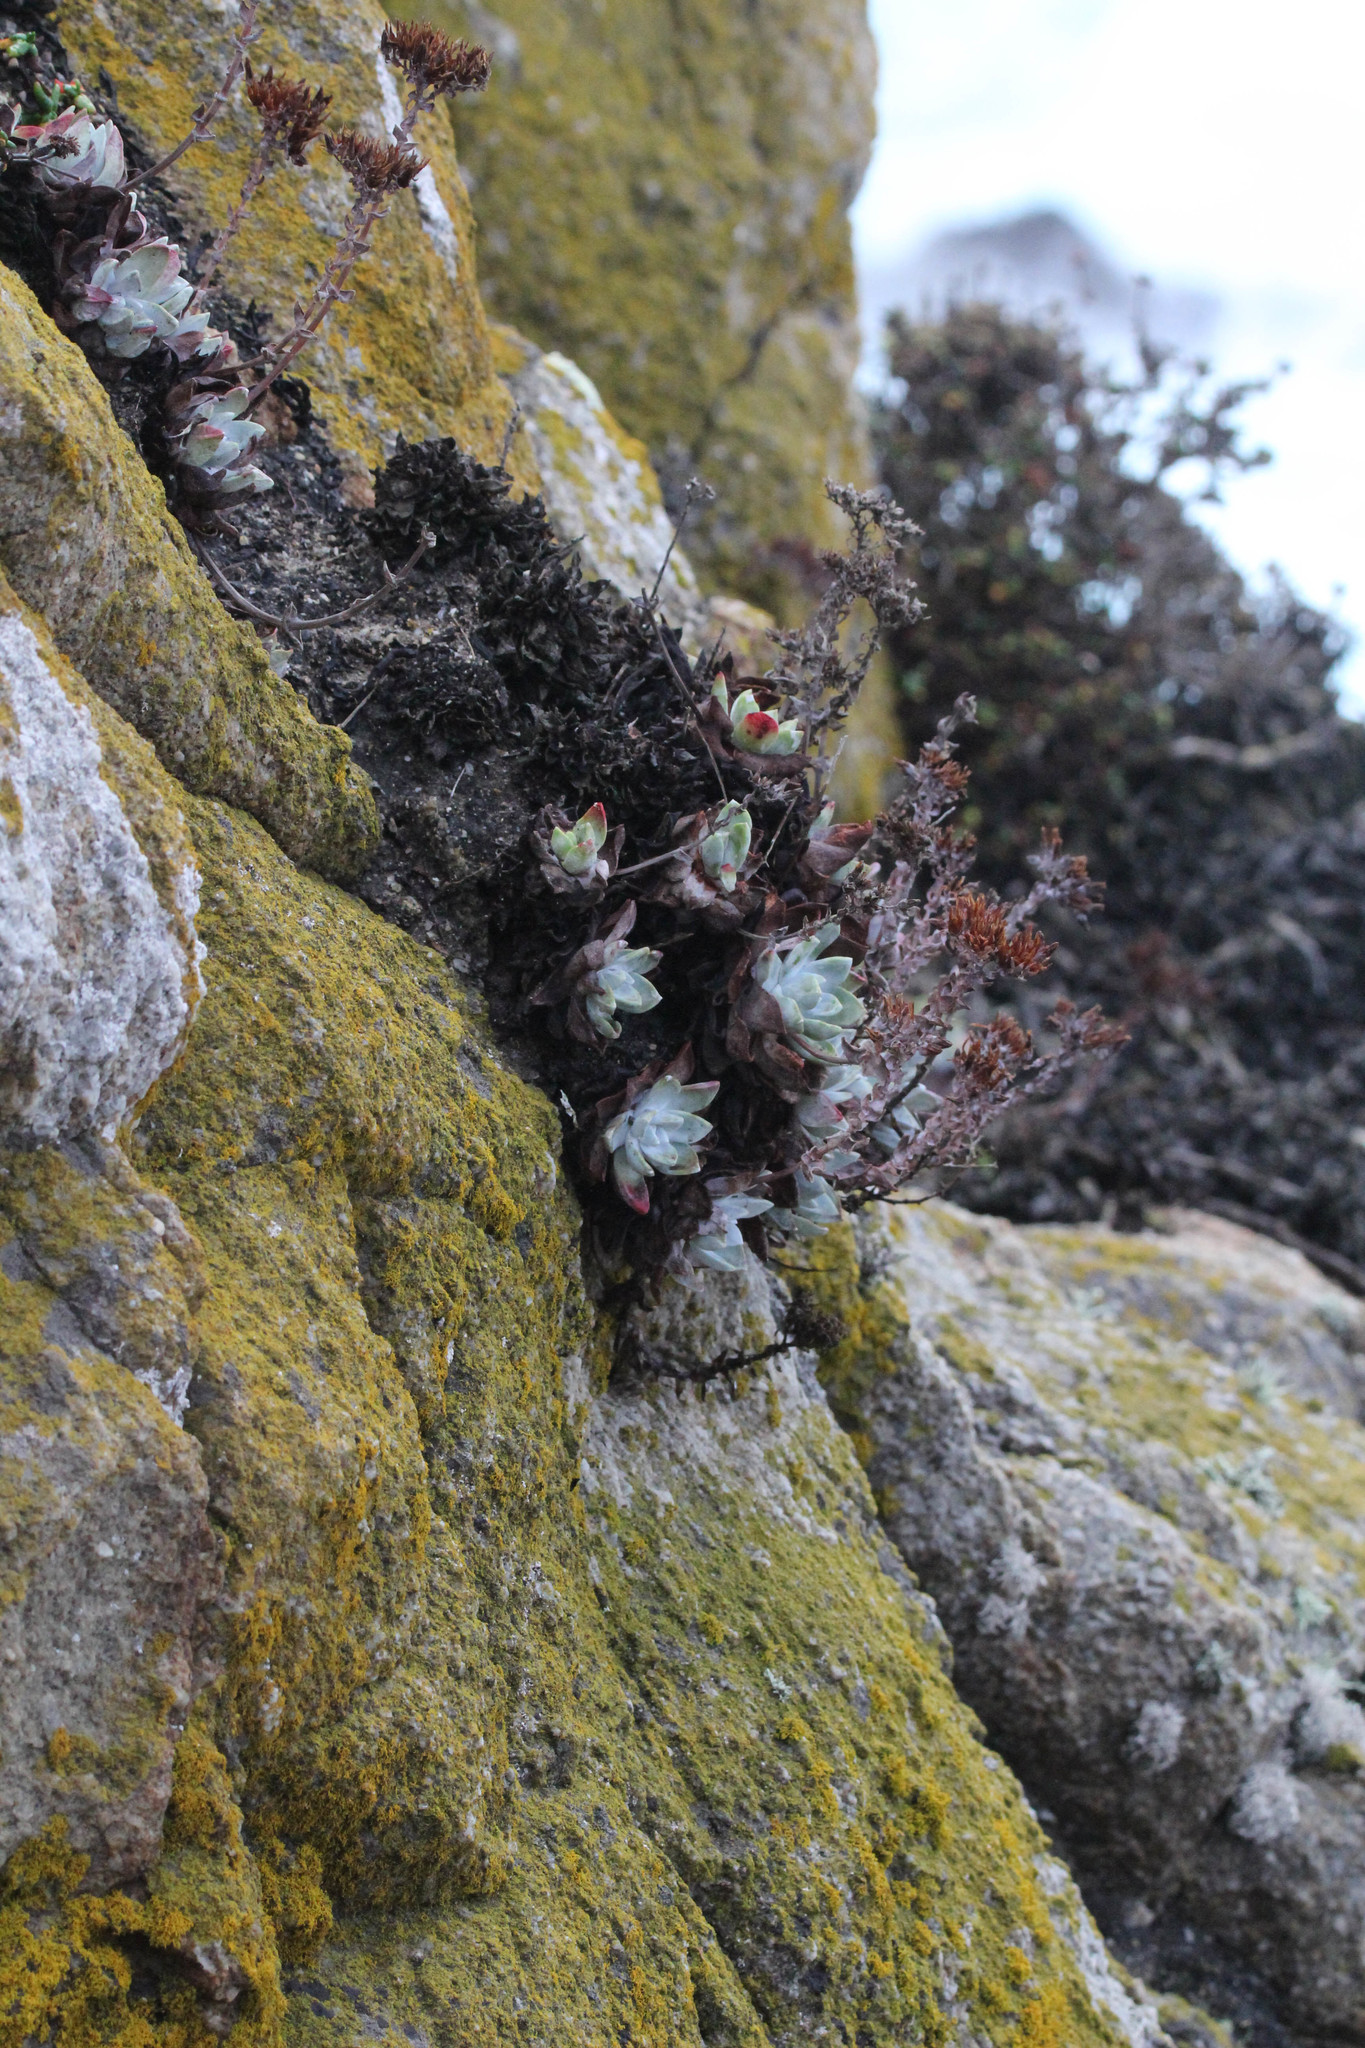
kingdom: Plantae
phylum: Tracheophyta
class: Magnoliopsida
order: Saxifragales
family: Crassulaceae
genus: Dudleya
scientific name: Dudleya farinosa
